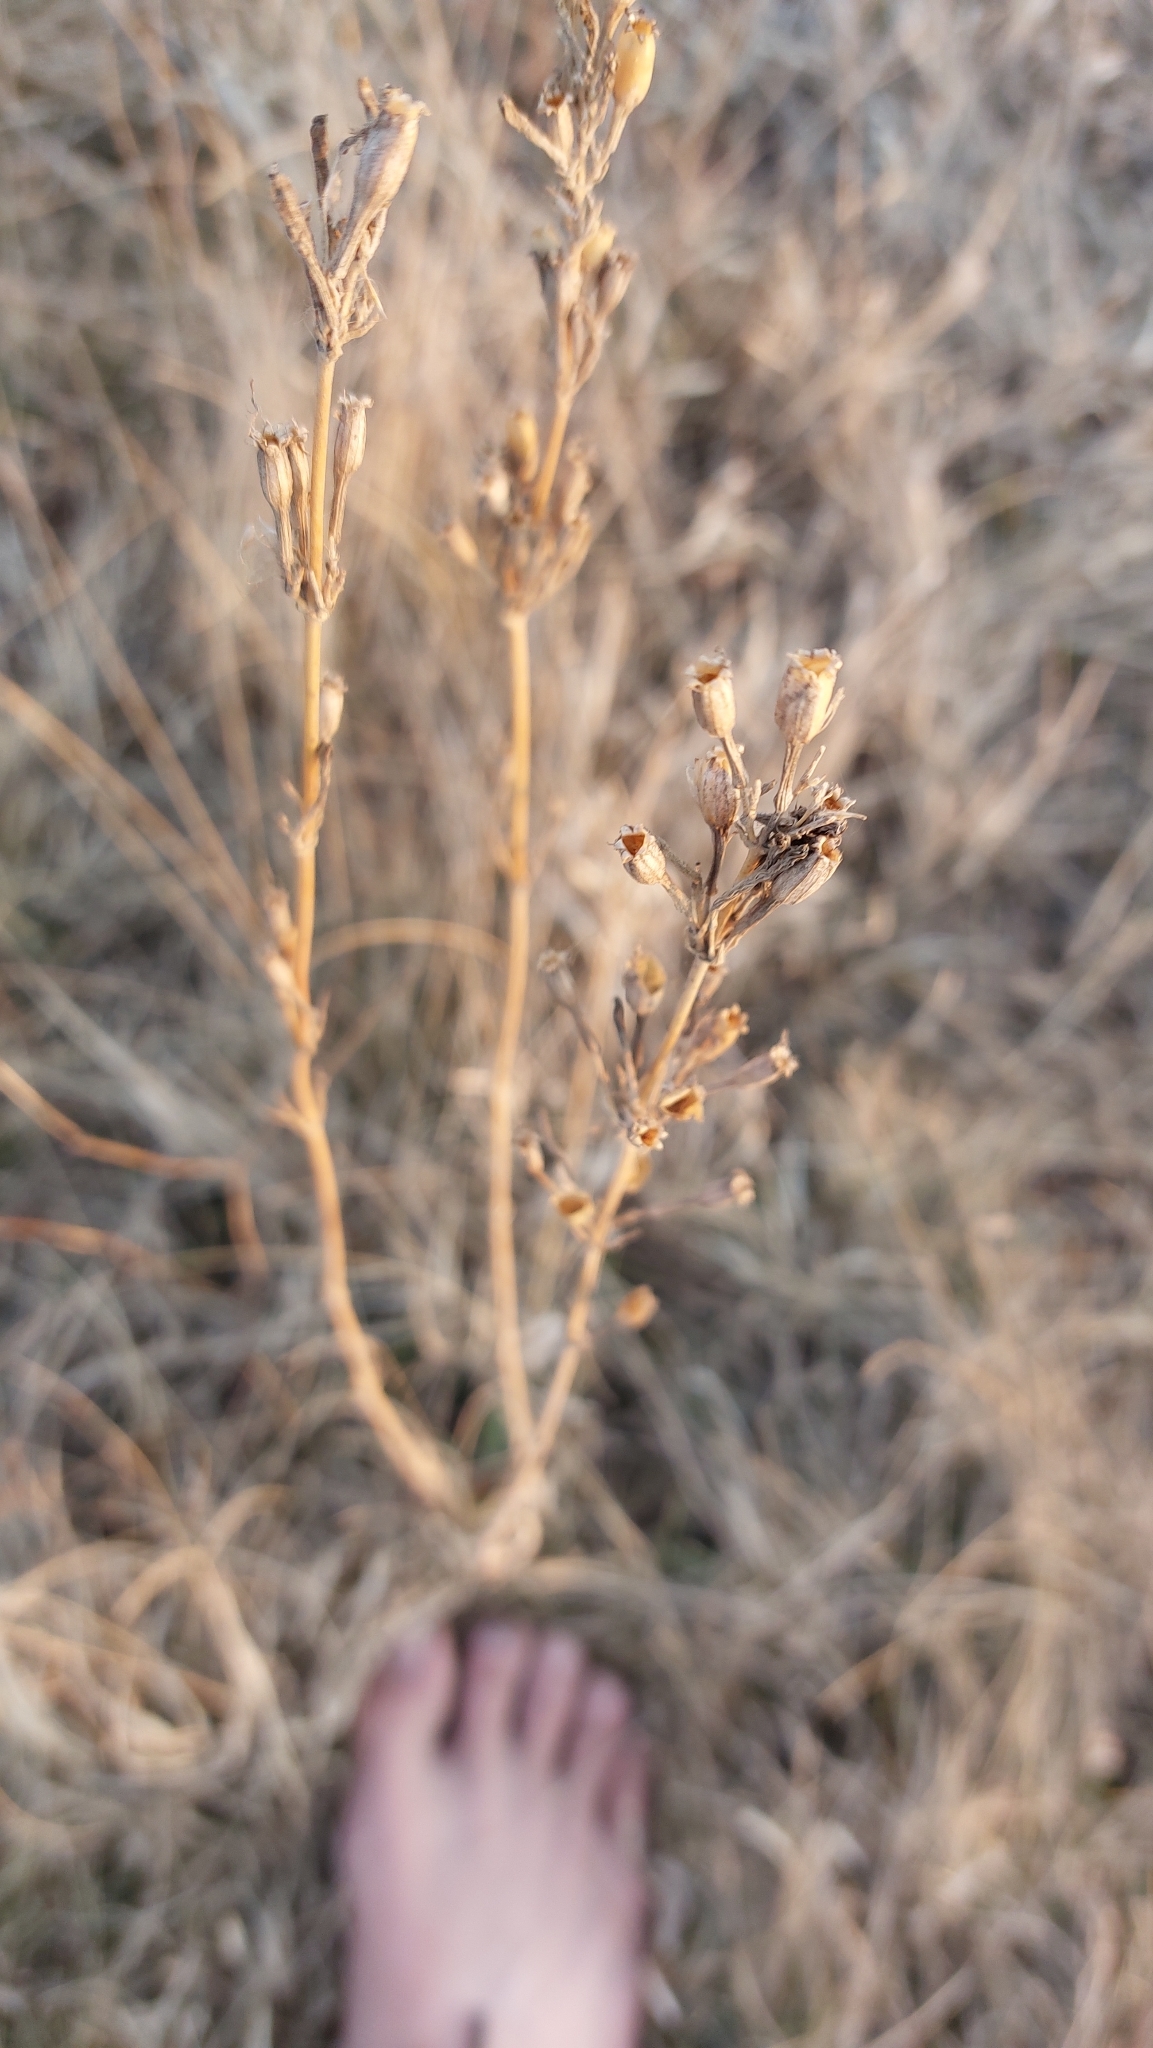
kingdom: Plantae
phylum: Tracheophyta
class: Magnoliopsida
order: Caryophyllales
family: Caryophyllaceae
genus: Silene
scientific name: Silene multiflora
